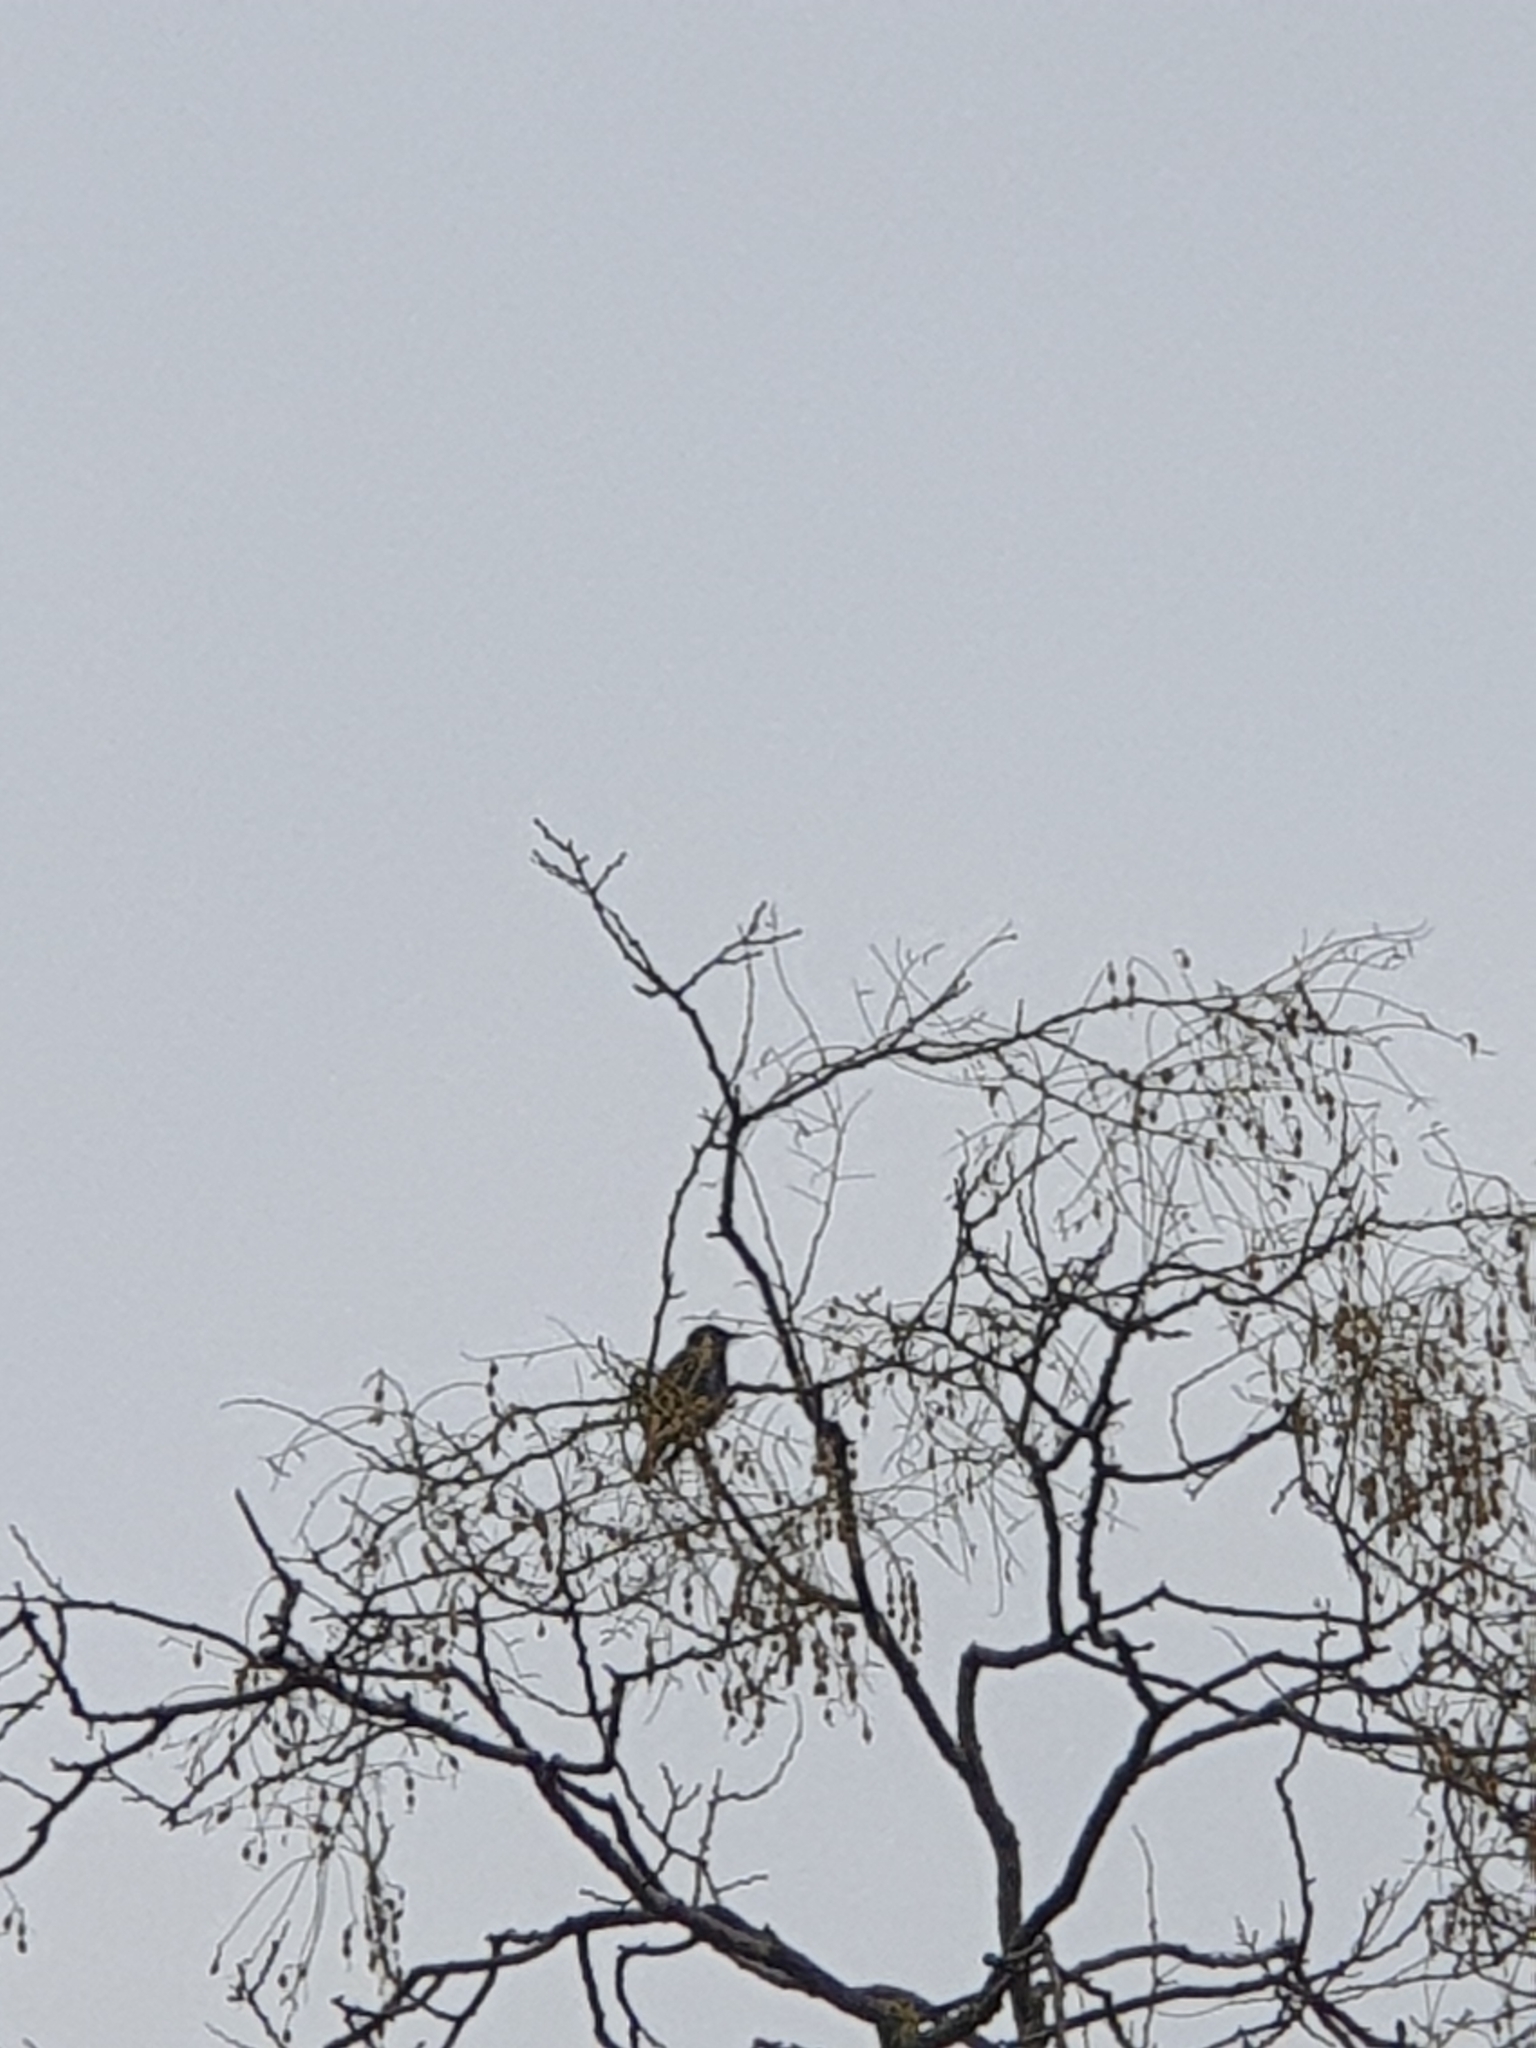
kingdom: Animalia
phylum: Chordata
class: Aves
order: Passeriformes
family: Sturnidae
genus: Sturnus
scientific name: Sturnus vulgaris
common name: Common starling
